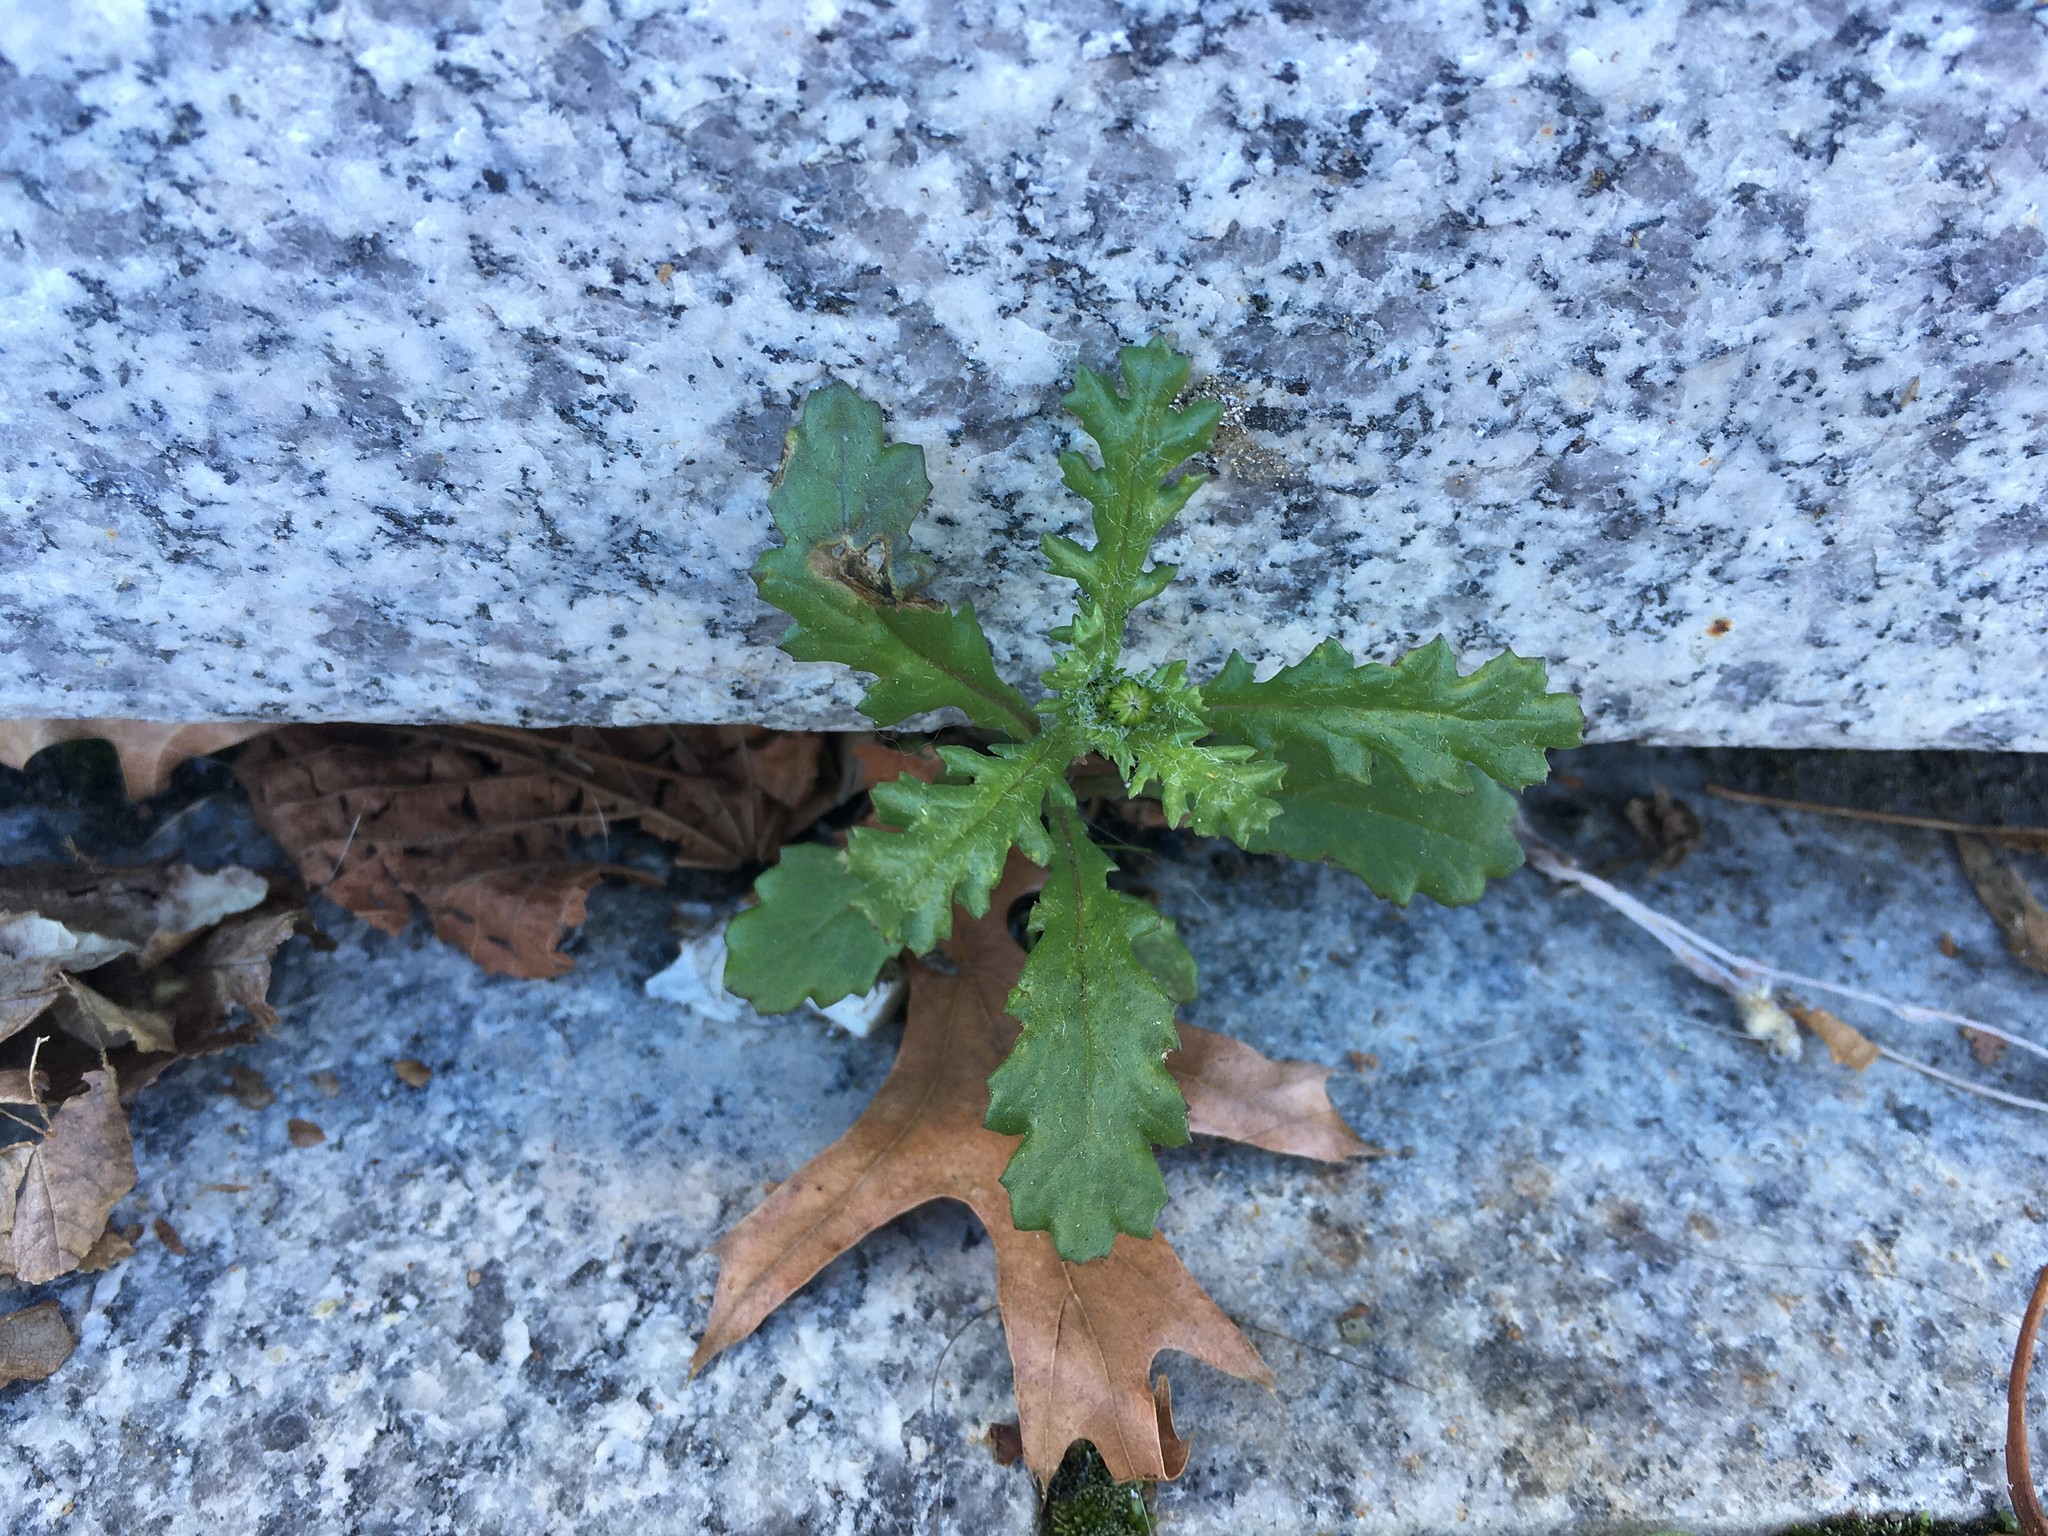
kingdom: Plantae
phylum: Tracheophyta
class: Magnoliopsida
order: Asterales
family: Asteraceae
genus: Senecio
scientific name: Senecio vulgaris
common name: Old-man-in-the-spring
